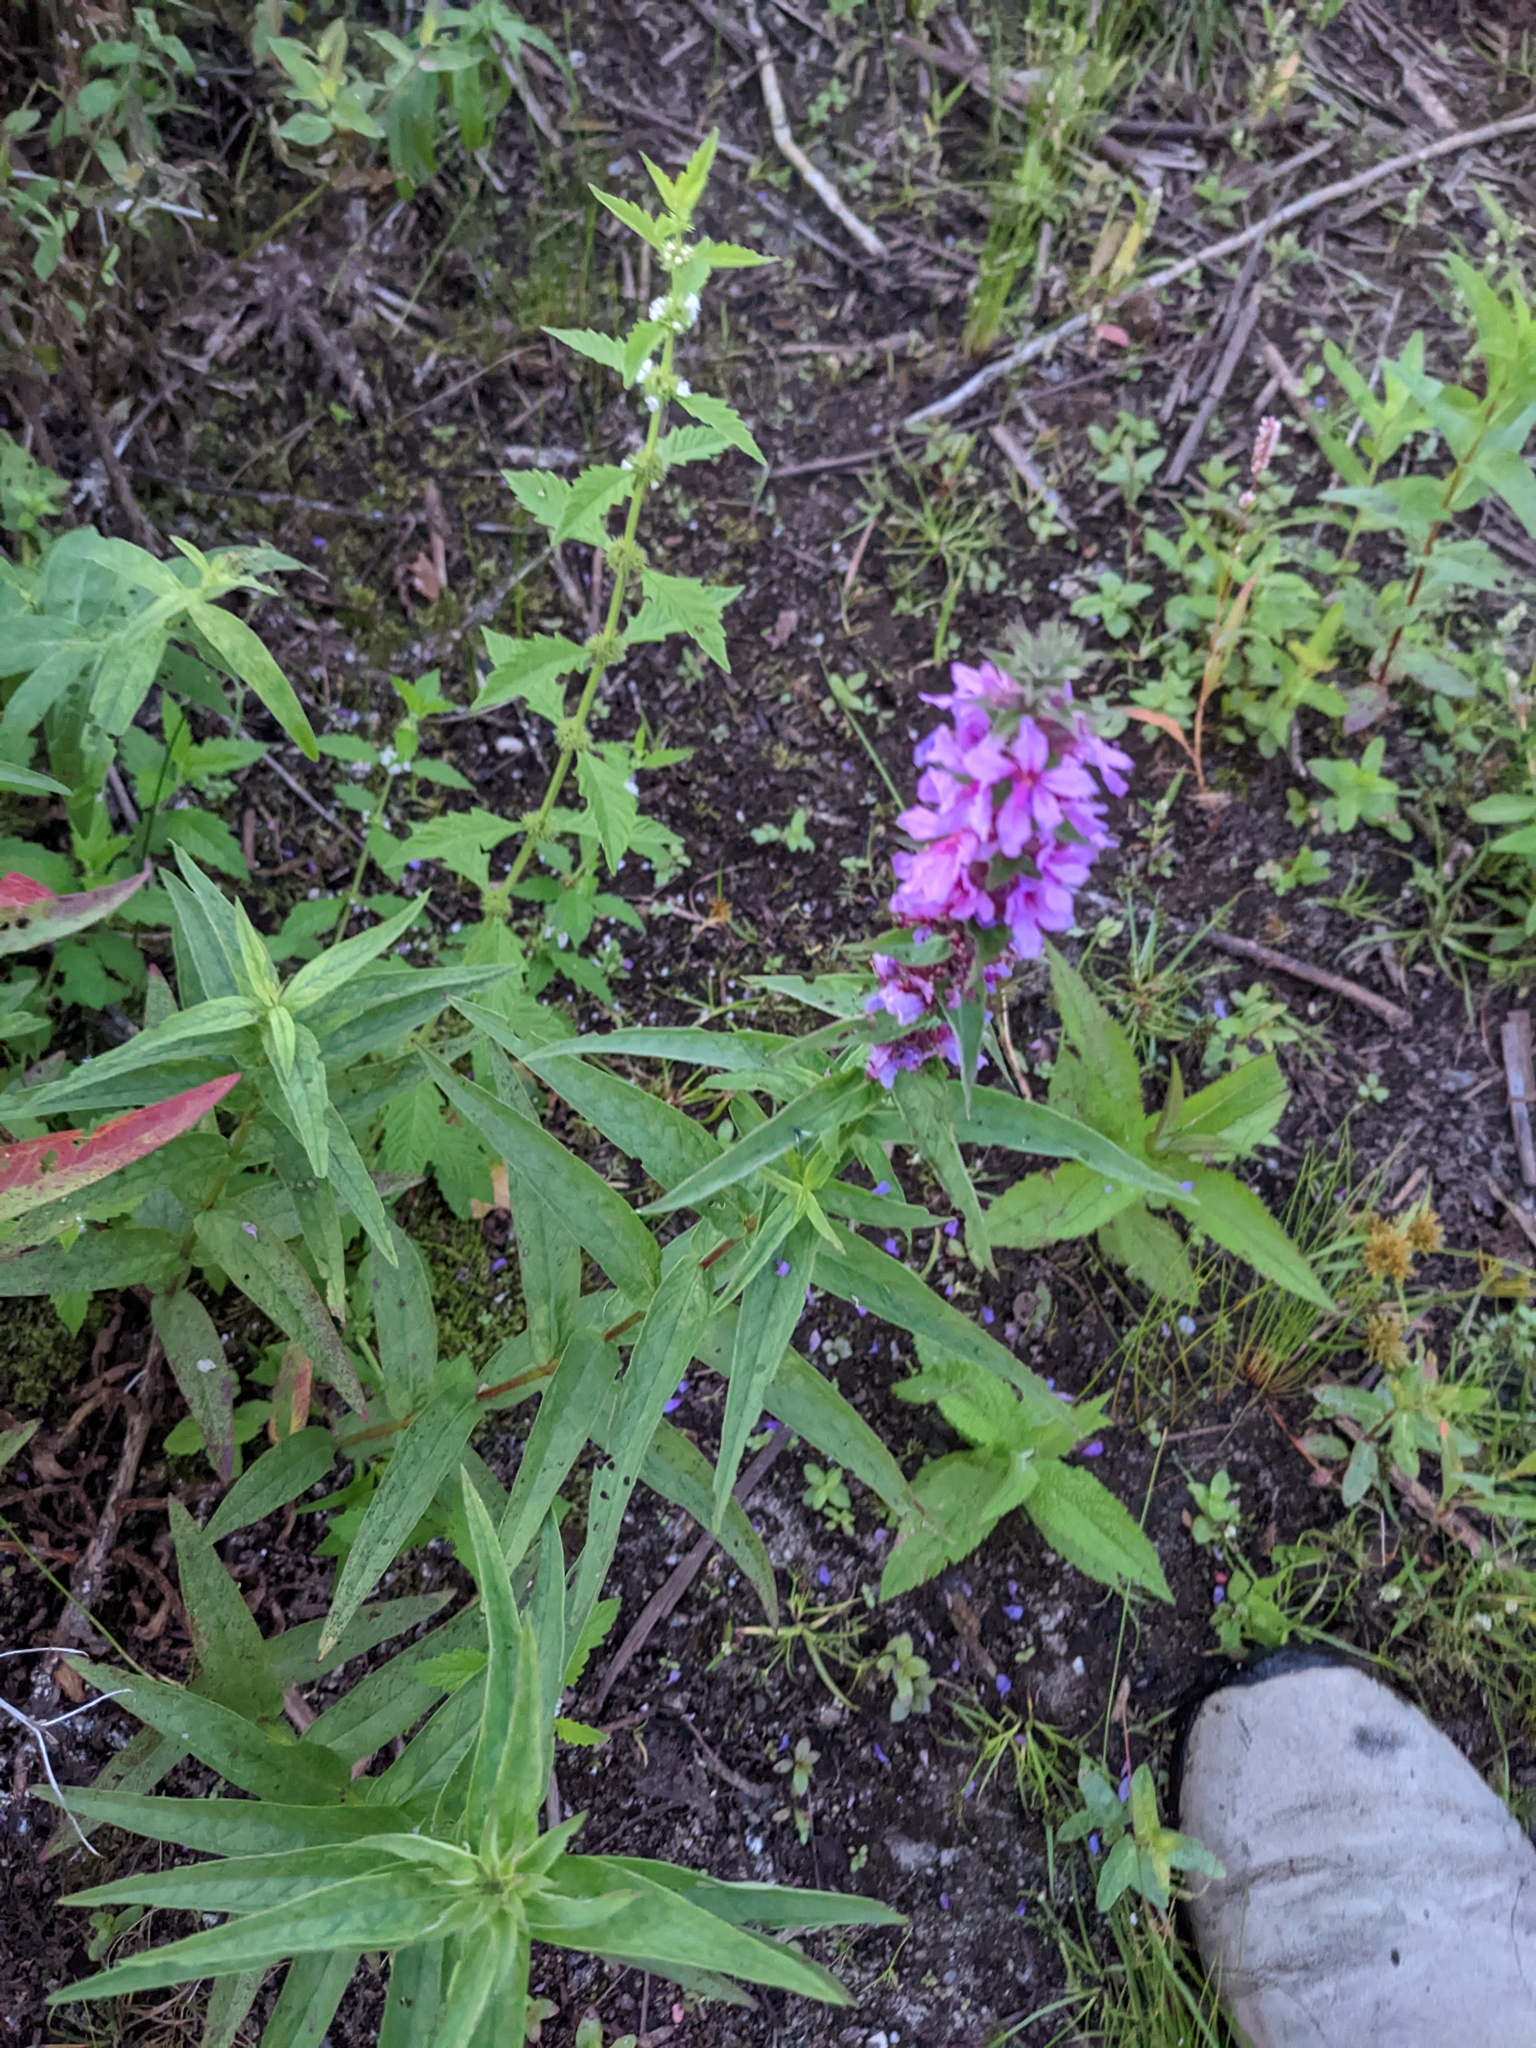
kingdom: Plantae
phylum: Tracheophyta
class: Magnoliopsida
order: Myrtales
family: Lythraceae
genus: Lythrum
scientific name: Lythrum salicaria
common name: Purple loosestrife
